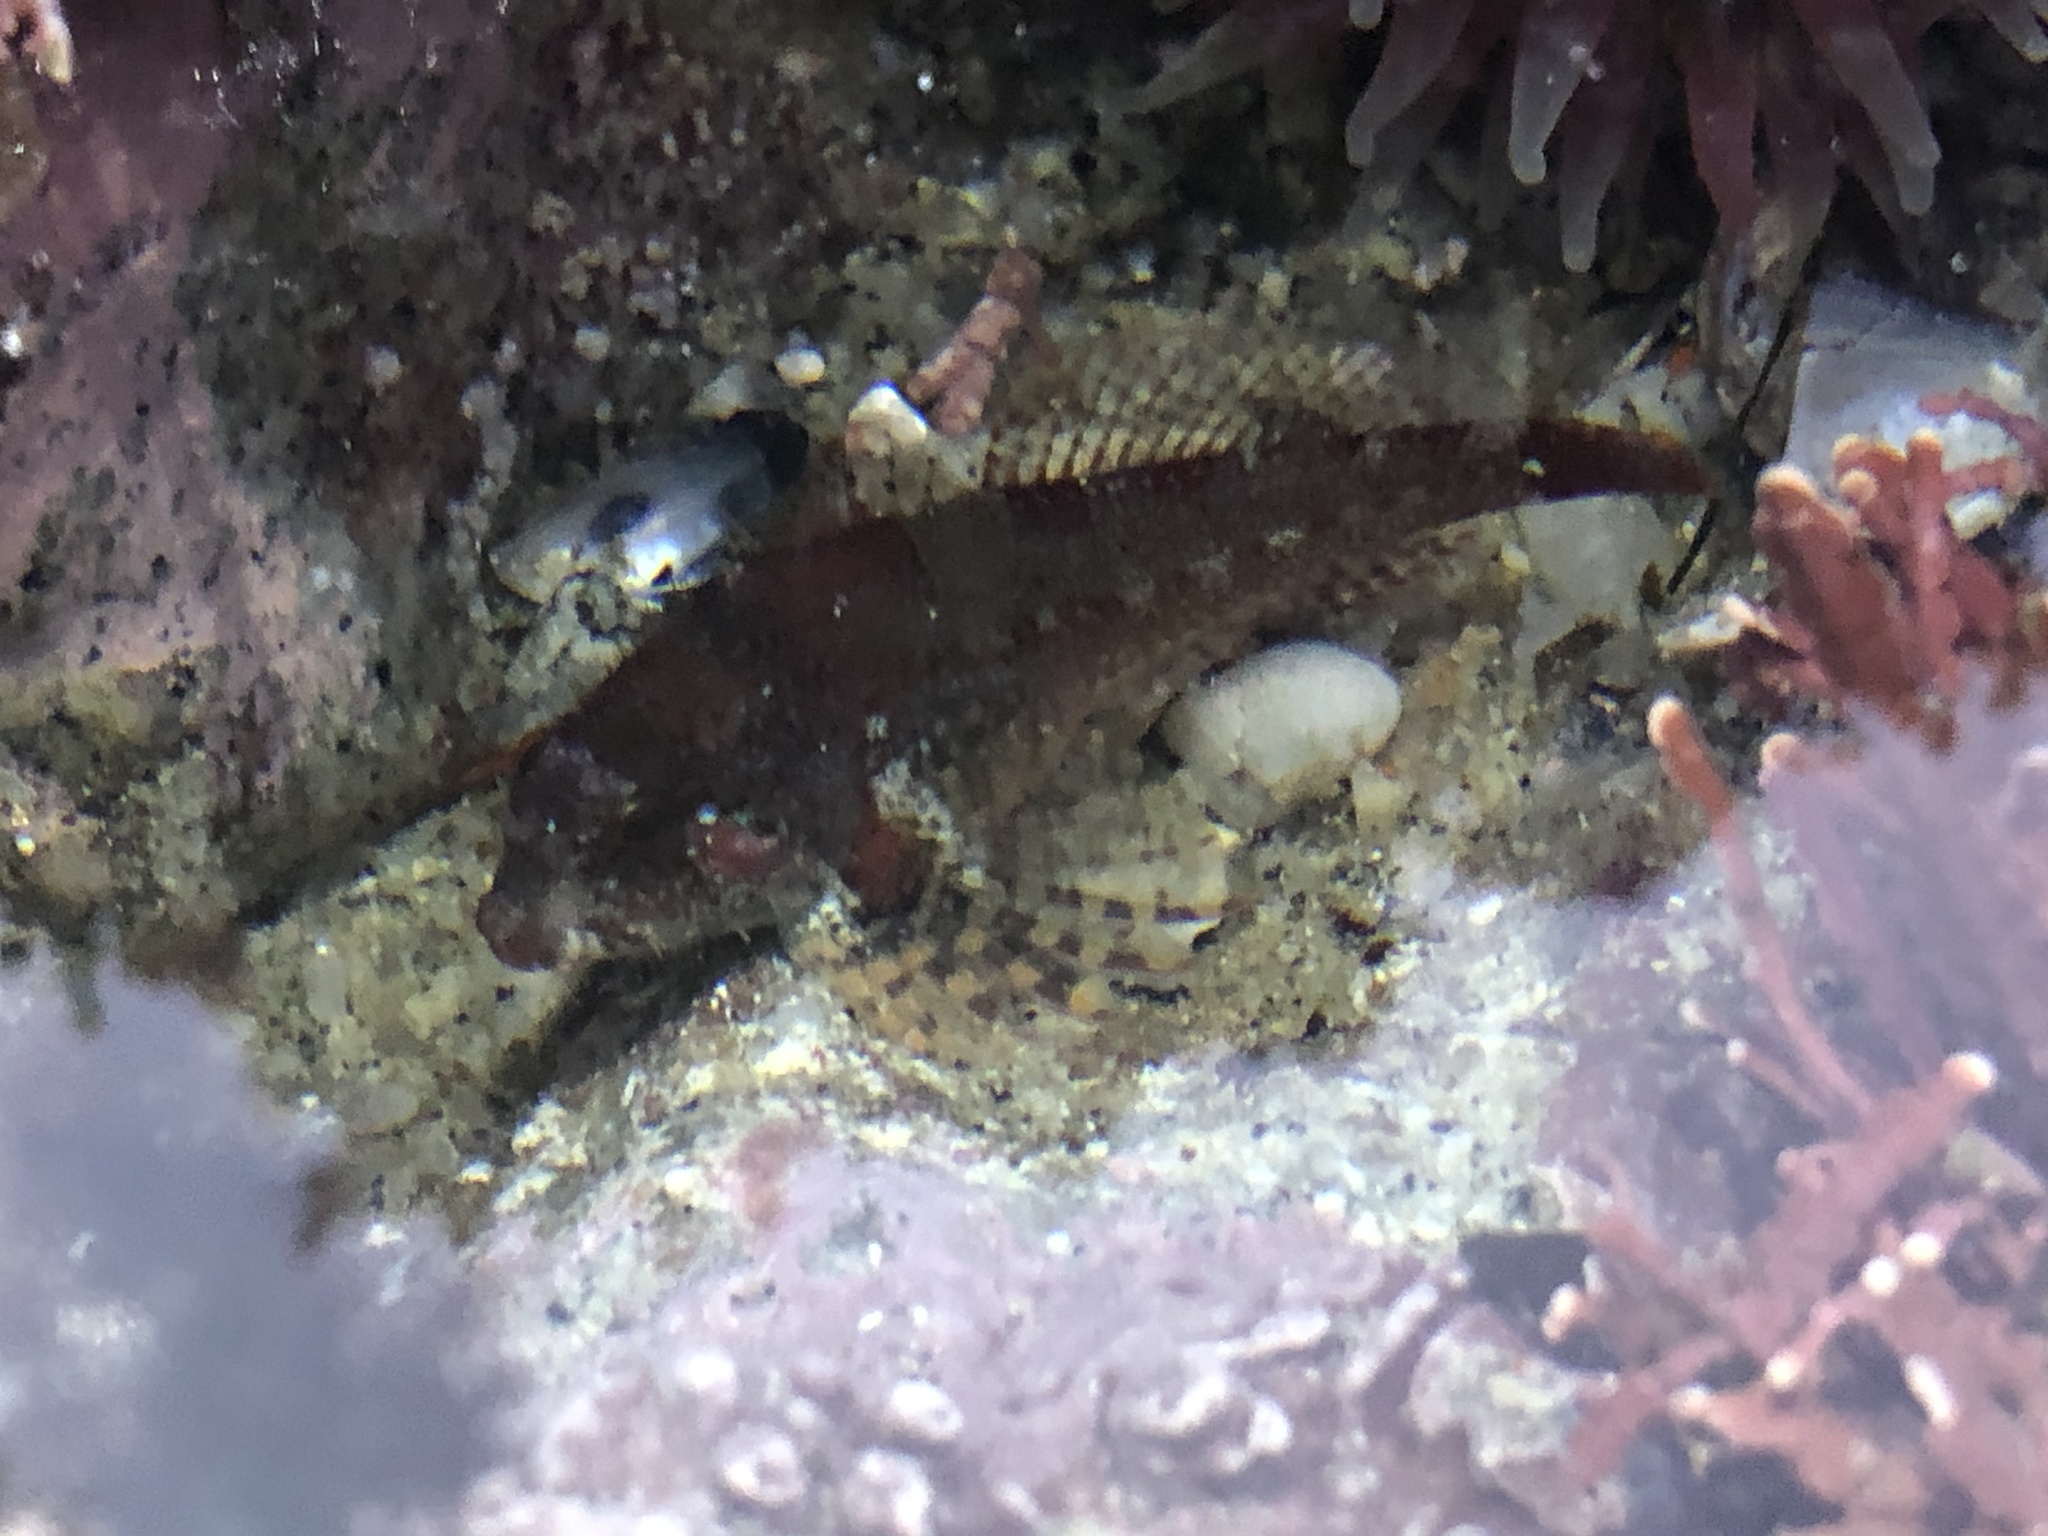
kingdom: Animalia
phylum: Chordata
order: Scorpaeniformes
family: Cottidae
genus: Oligocottus
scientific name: Oligocottus rubellio
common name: Rosy sculpin
